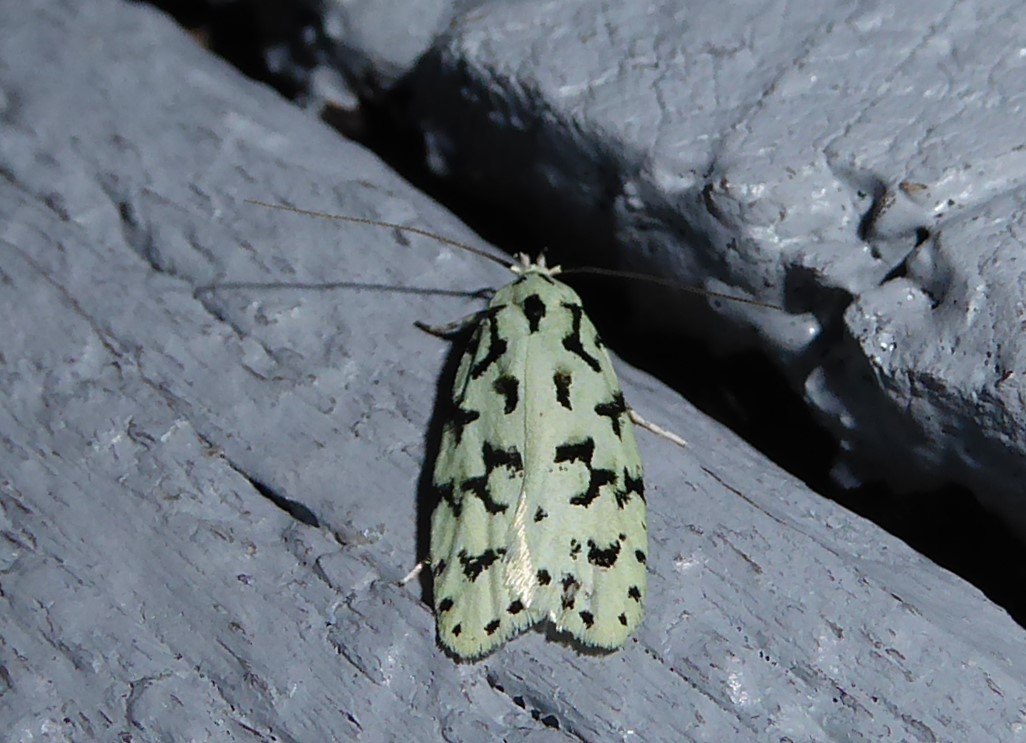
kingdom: Animalia
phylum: Arthropoda
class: Insecta
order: Lepidoptera
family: Oecophoridae
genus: Izatha
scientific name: Izatha huttoni
